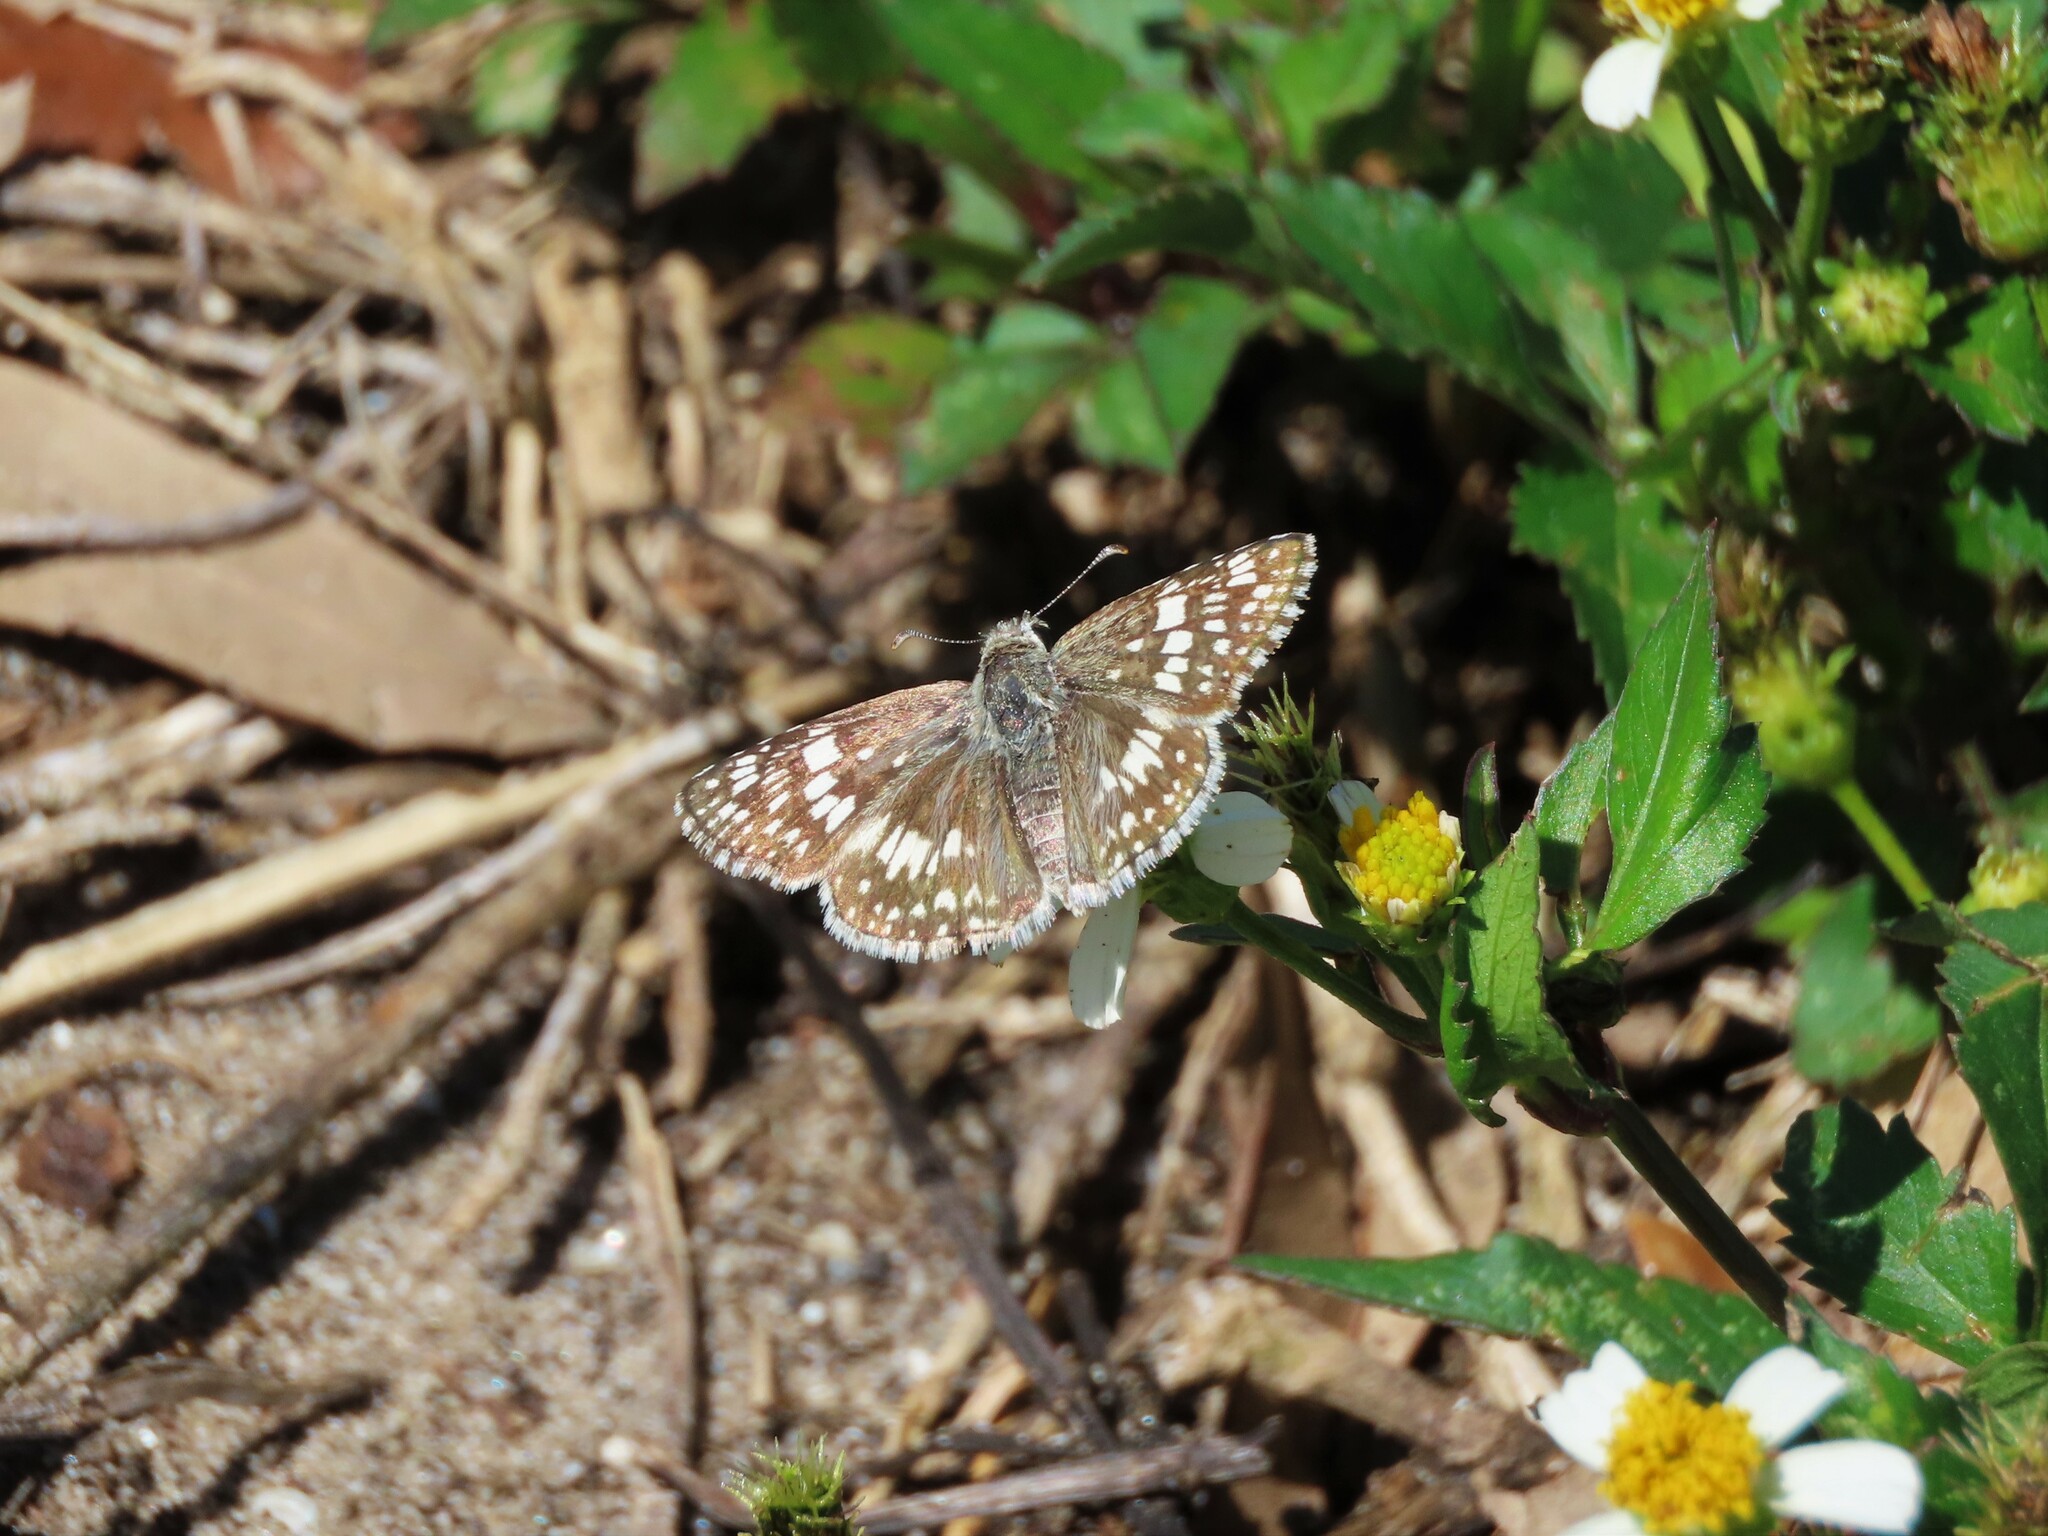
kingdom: Animalia
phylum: Arthropoda
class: Insecta
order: Lepidoptera
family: Hesperiidae
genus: Burnsius
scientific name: Burnsius albezens
